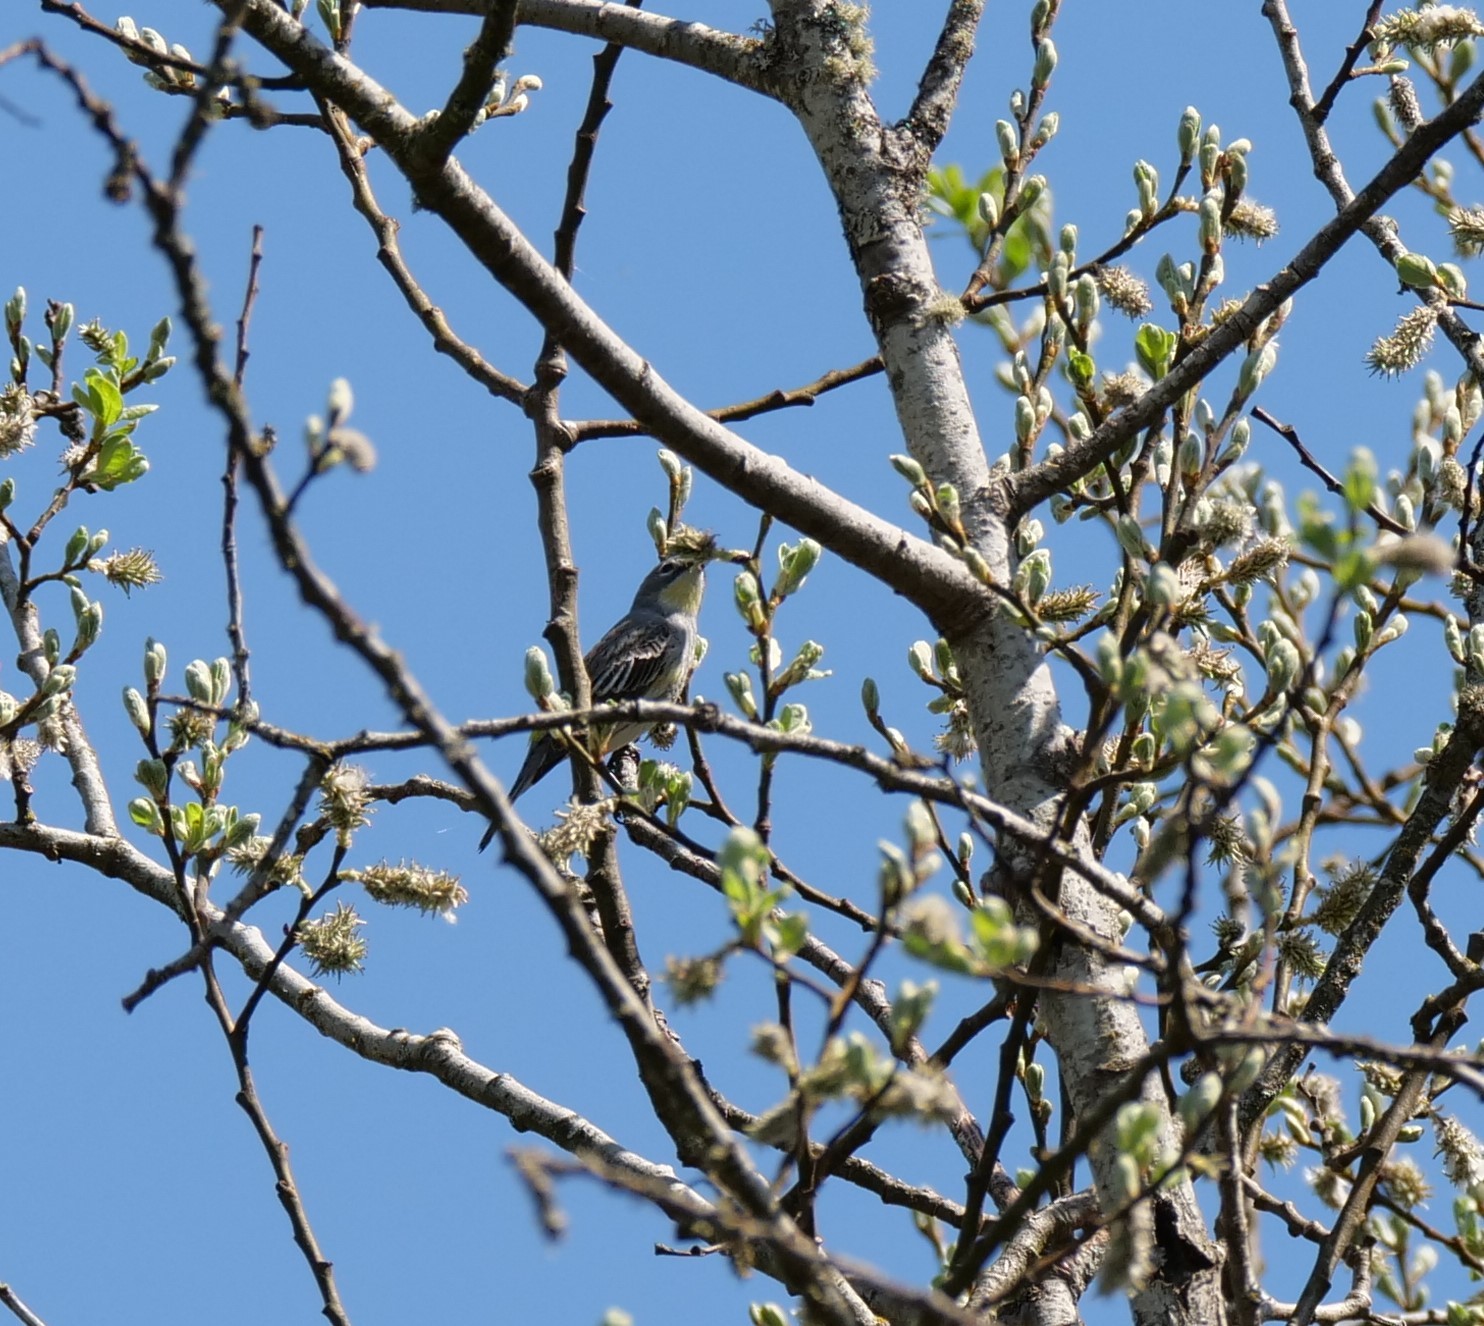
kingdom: Animalia
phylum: Chordata
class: Aves
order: Passeriformes
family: Parulidae
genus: Setophaga
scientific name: Setophaga coronata
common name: Myrtle warbler
